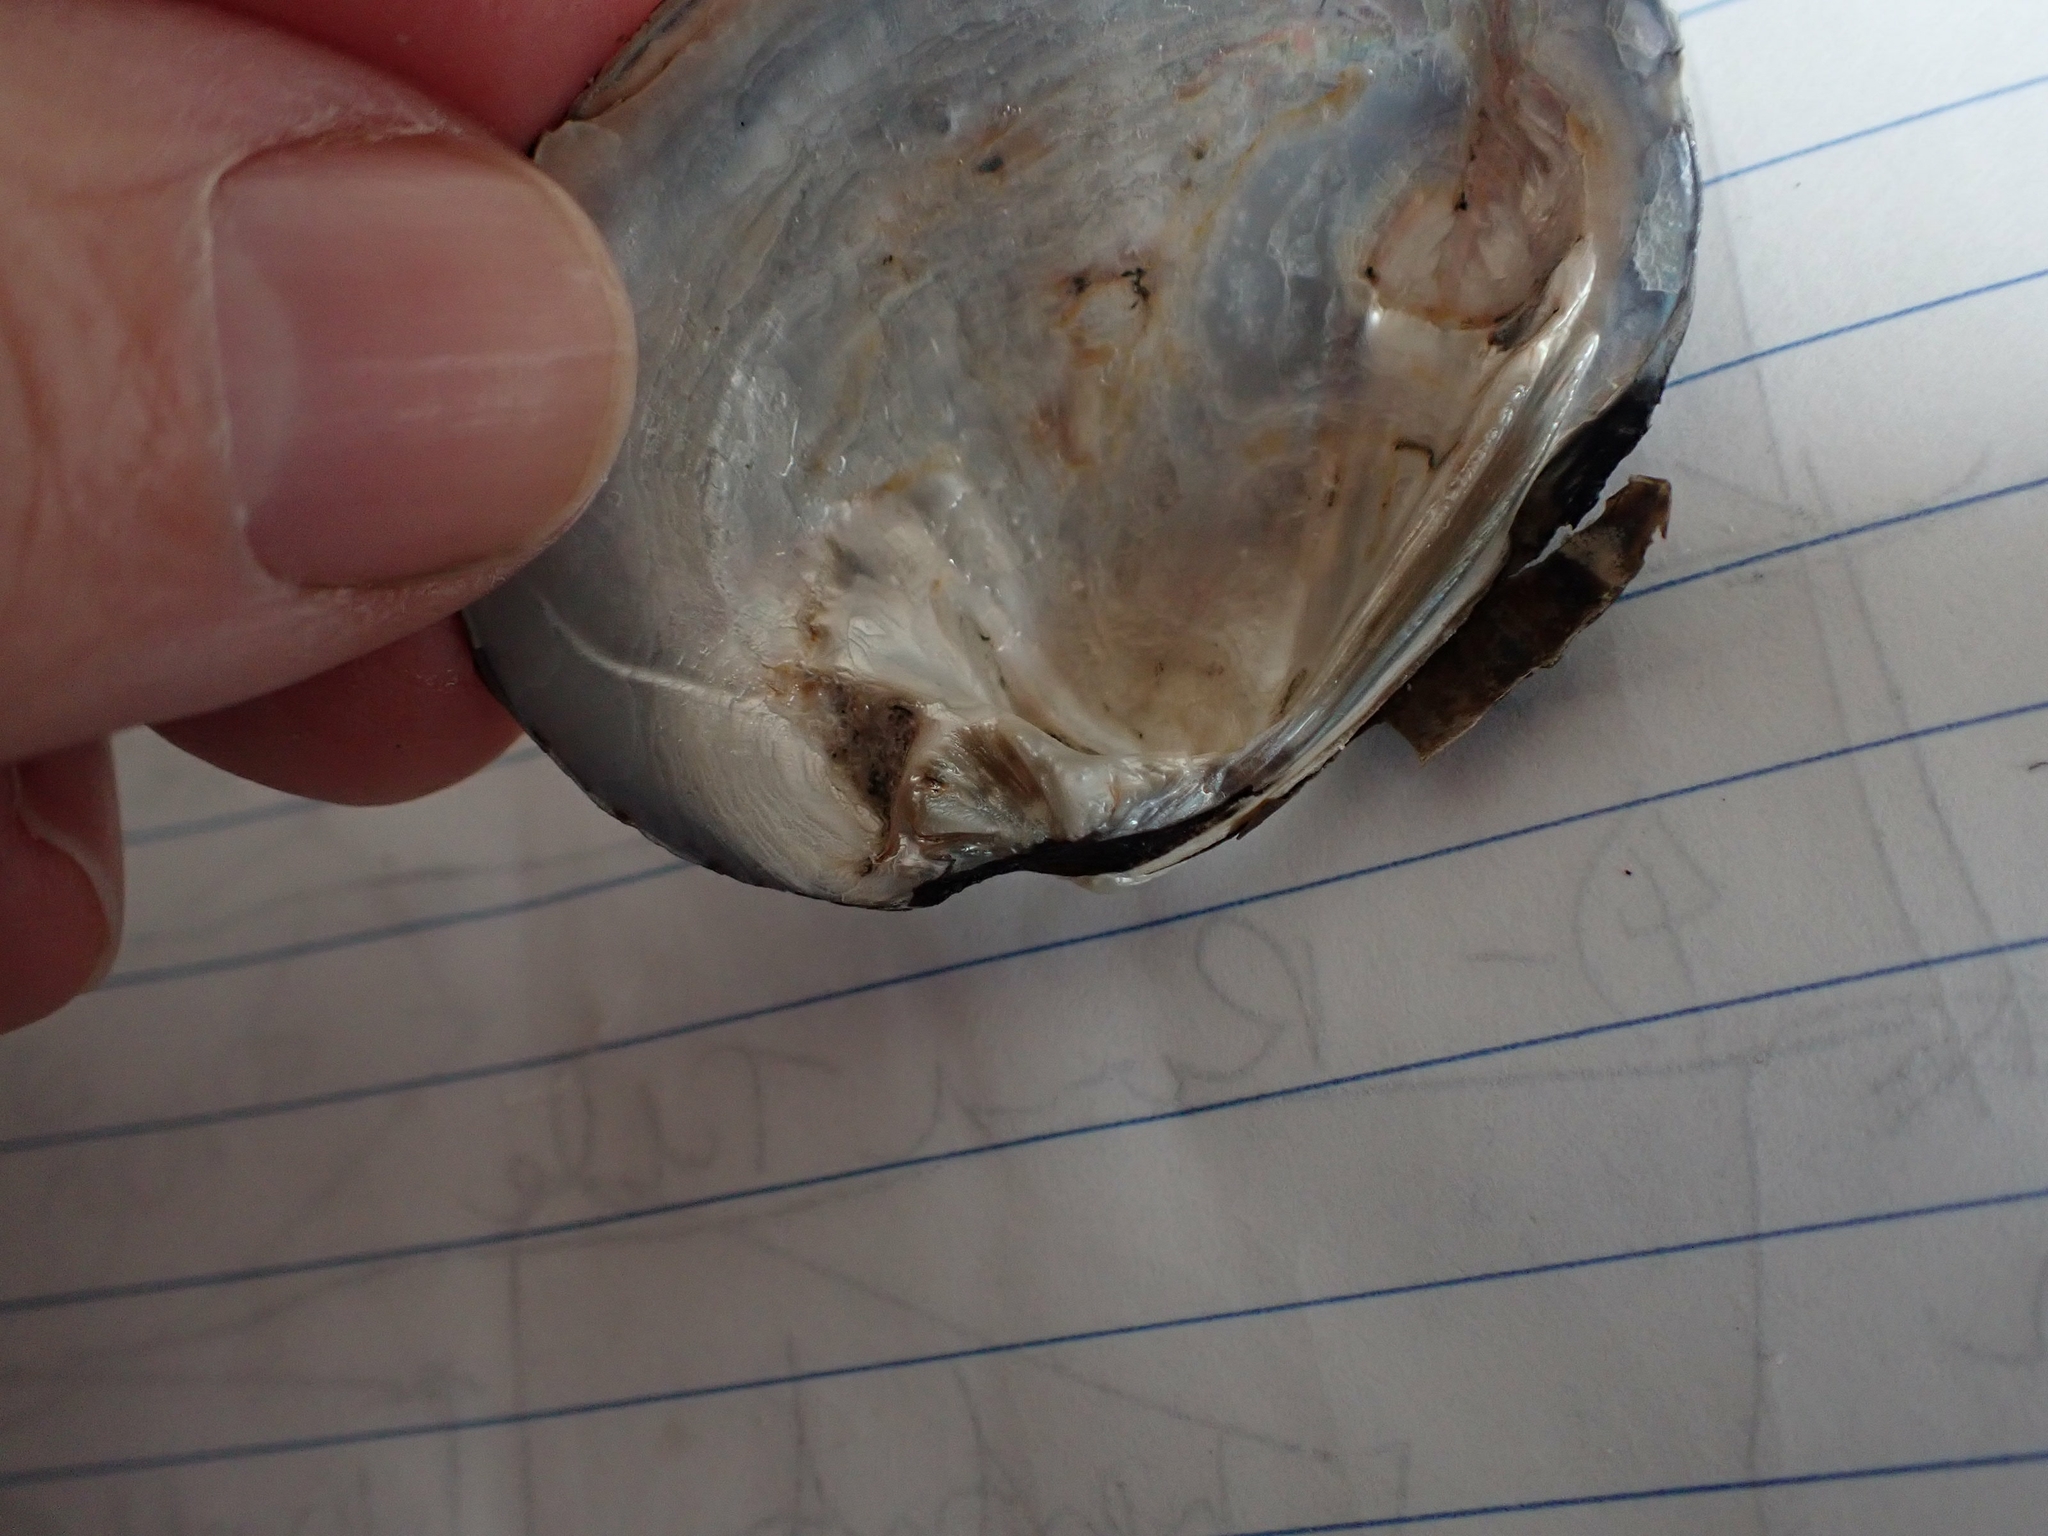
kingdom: Animalia
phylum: Mollusca
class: Bivalvia
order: Unionida
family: Unionidae
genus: Fusconaia
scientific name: Fusconaia flava
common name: Wabash pigtoe
